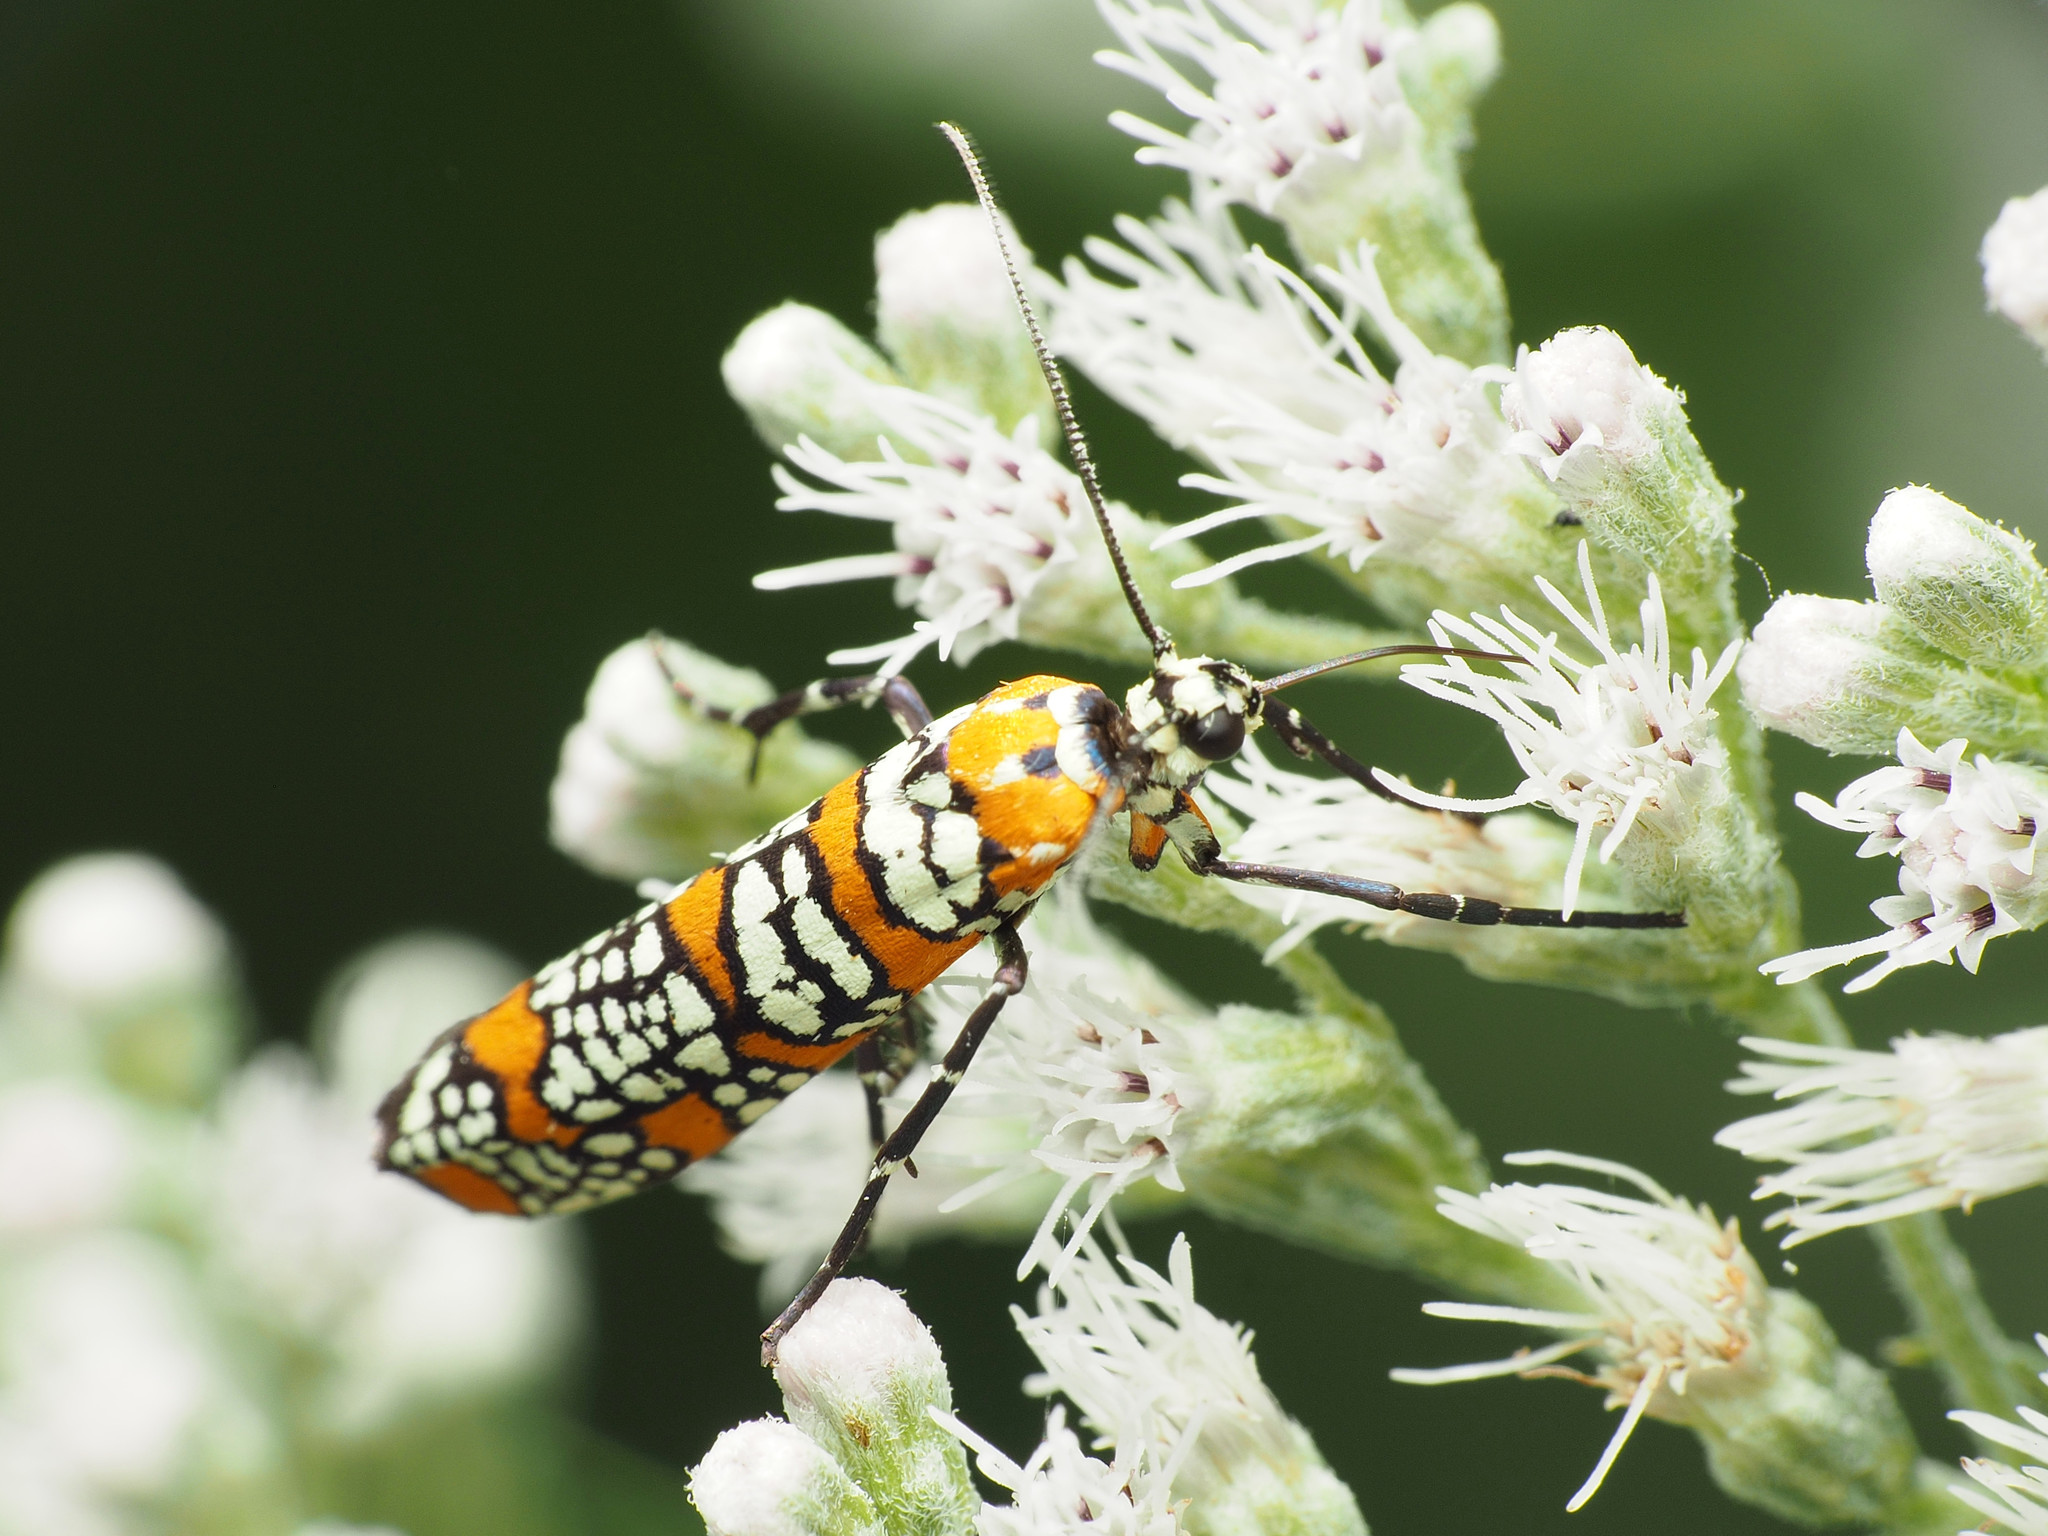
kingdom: Animalia
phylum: Arthropoda
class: Insecta
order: Lepidoptera
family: Attevidae
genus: Atteva
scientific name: Atteva punctella
